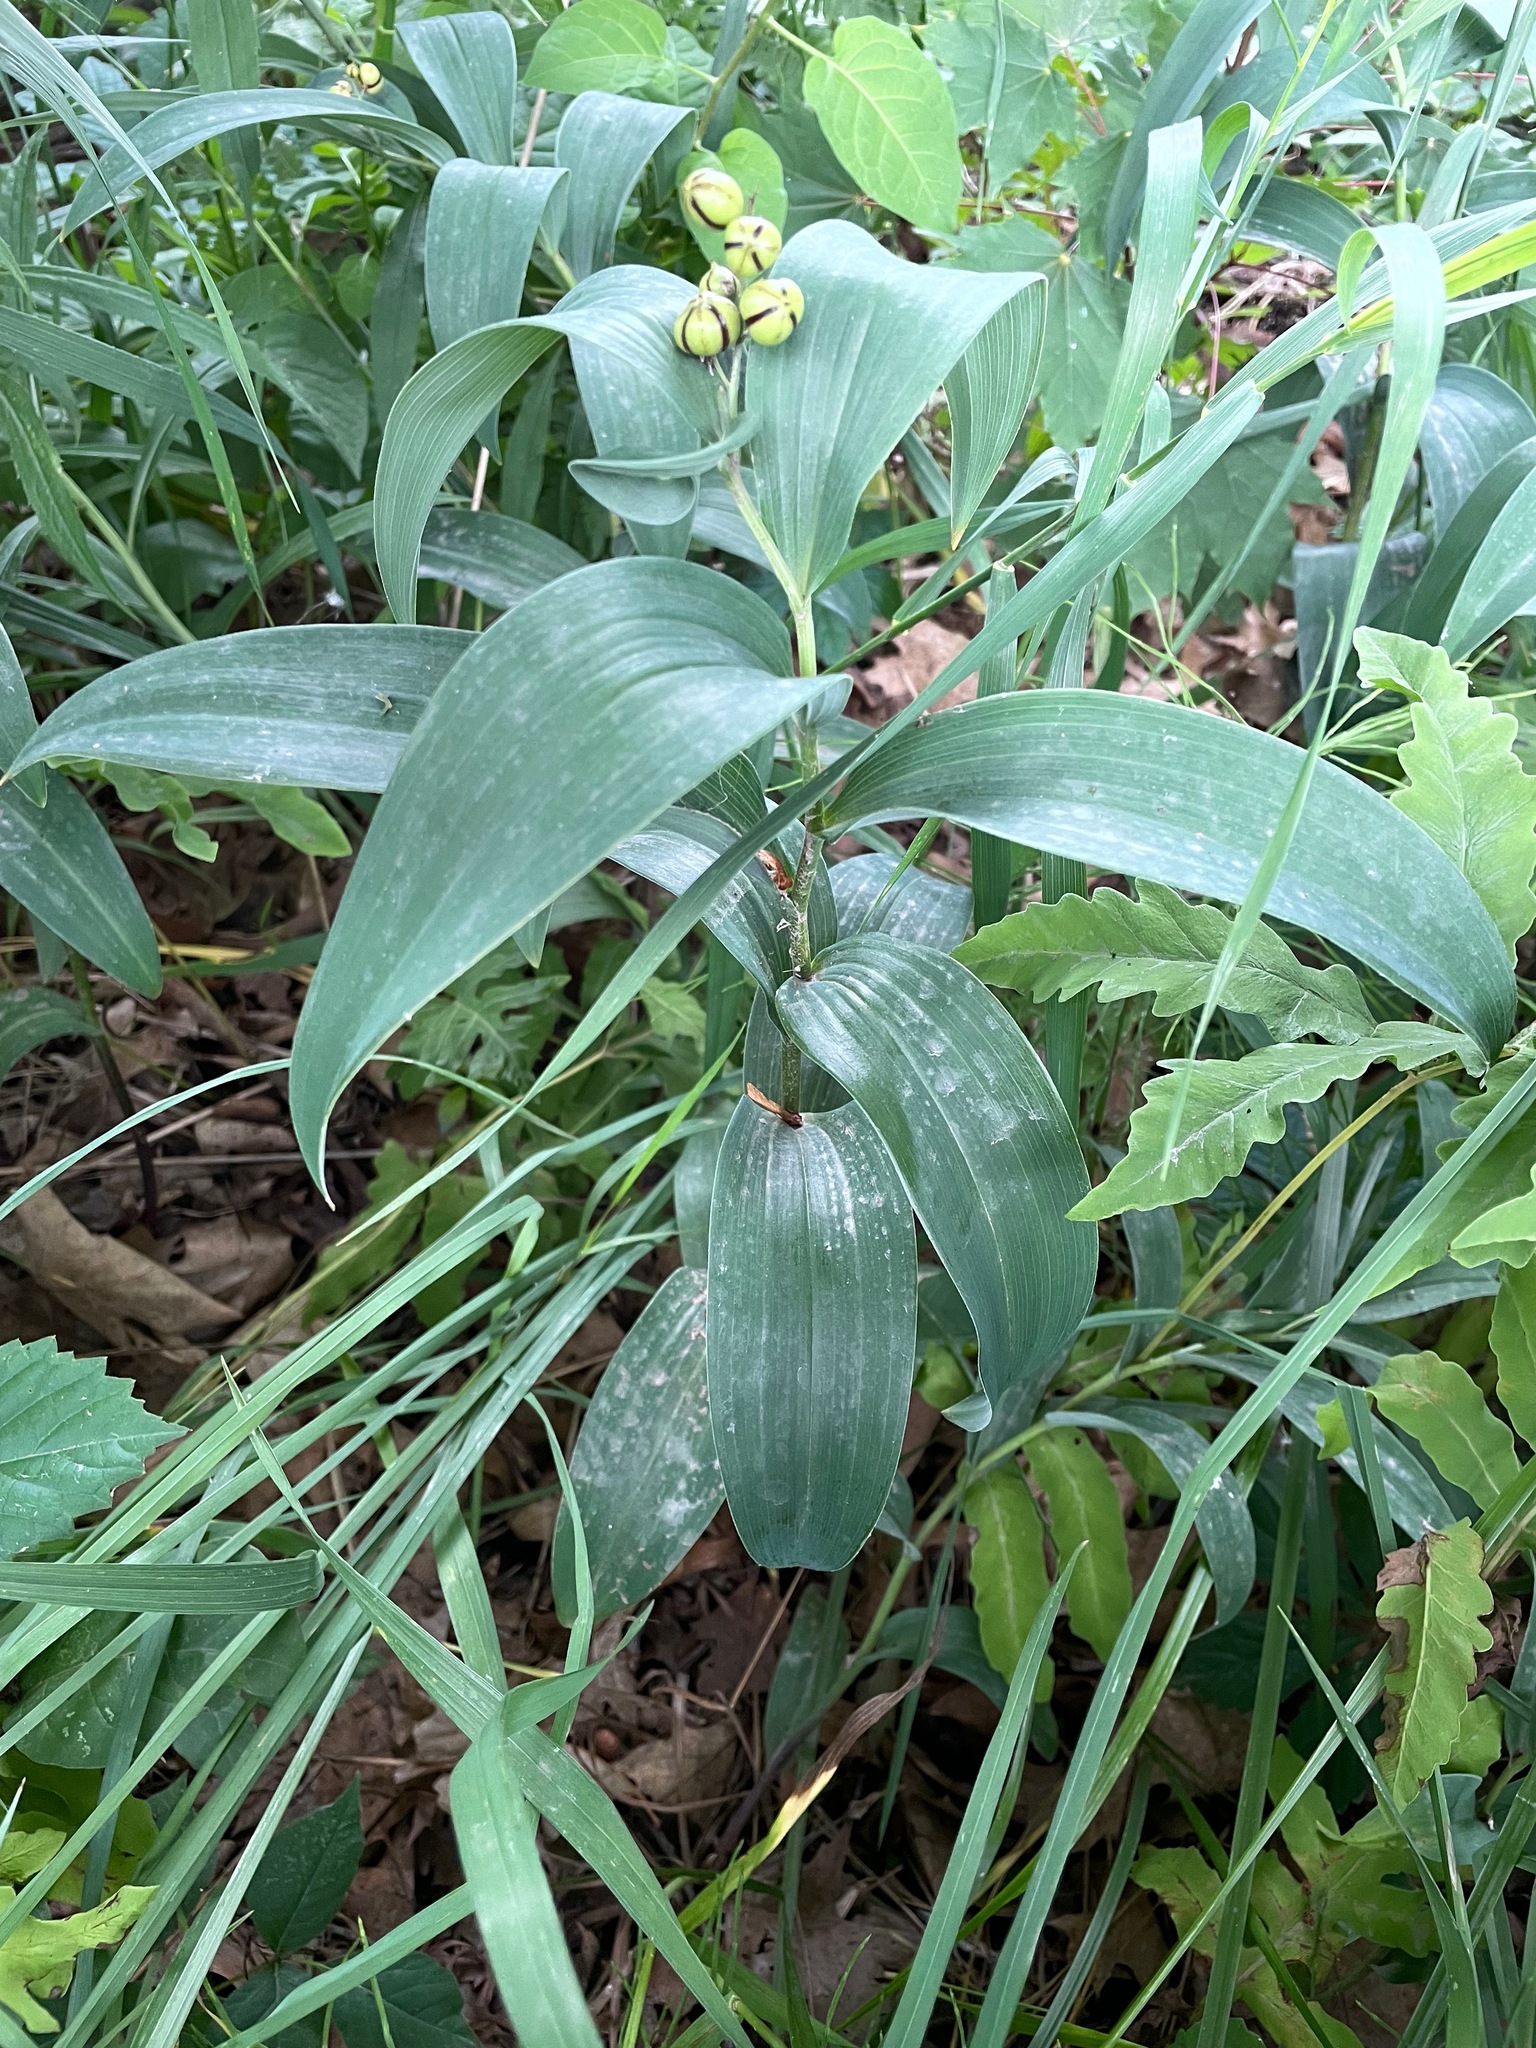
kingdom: Plantae
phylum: Tracheophyta
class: Liliopsida
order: Asparagales
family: Asparagaceae
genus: Maianthemum
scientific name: Maianthemum stellatum
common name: Little false solomon's seal
